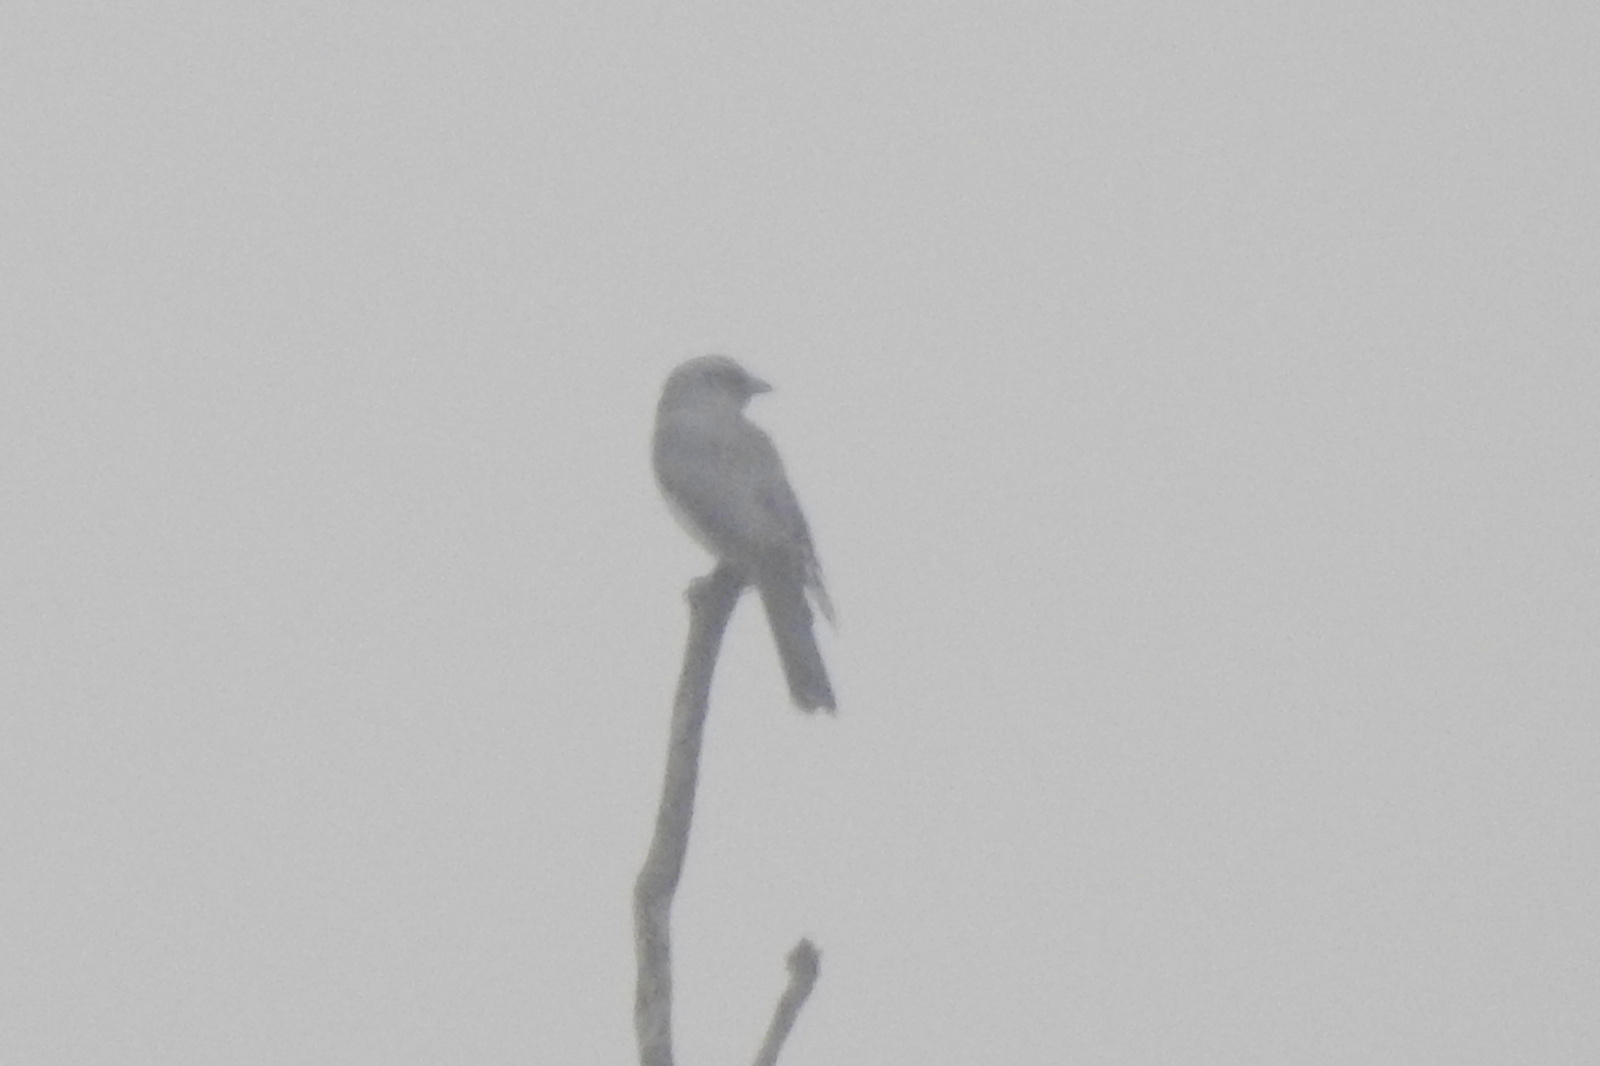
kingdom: Animalia
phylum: Chordata
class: Aves
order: Passeriformes
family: Campephagidae
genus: Coracina
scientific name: Coracina macei
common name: Large cuckooshrike
